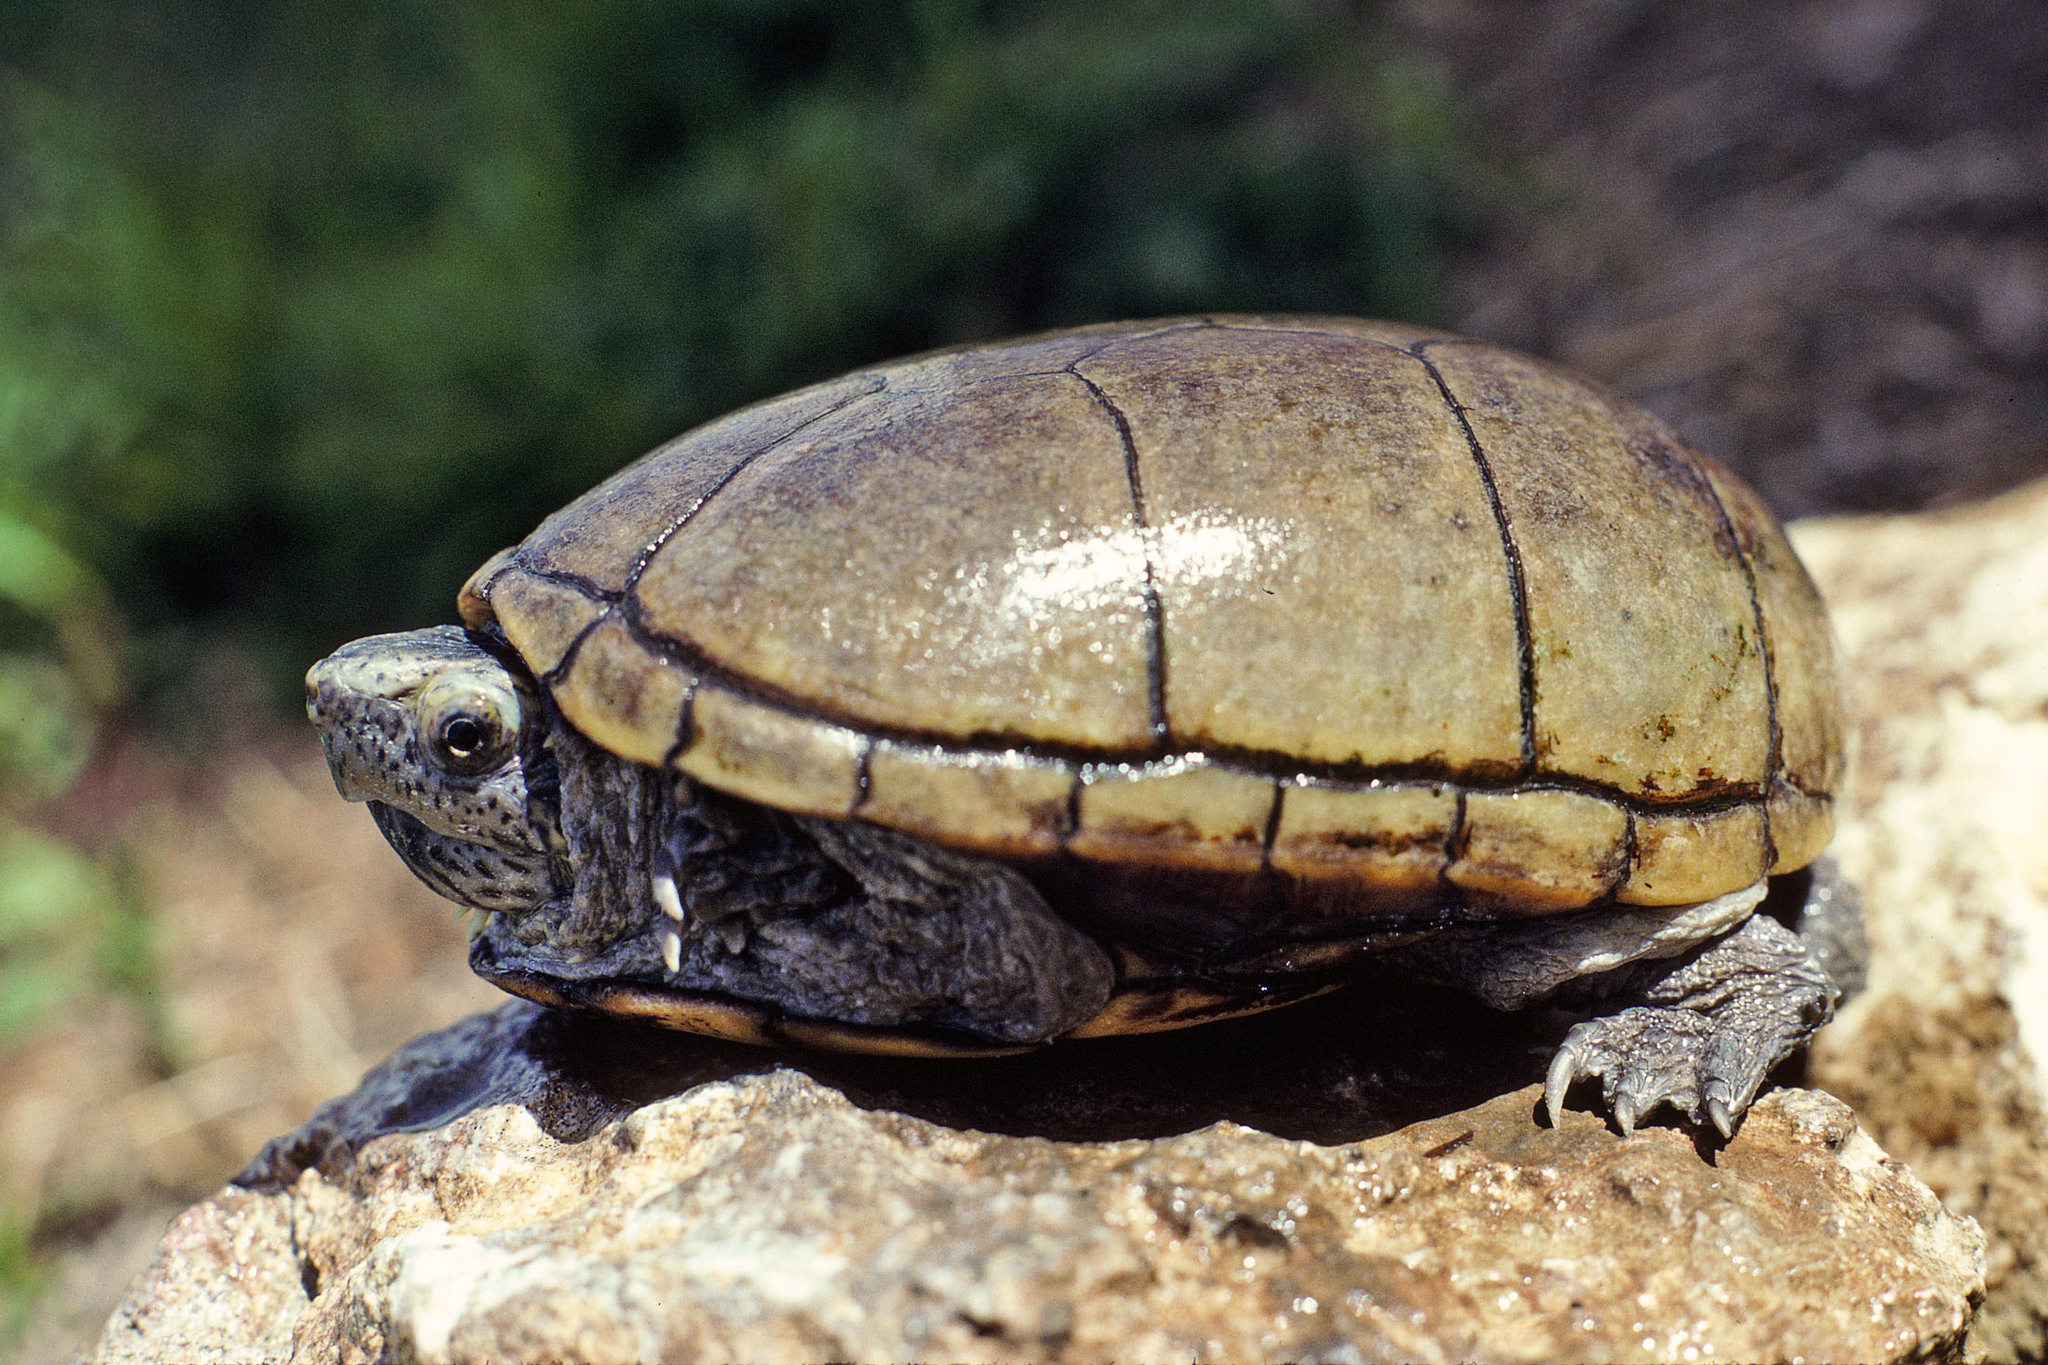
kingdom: Animalia
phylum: Chordata
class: Testudines
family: Kinosternidae
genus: Kinosternon
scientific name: Kinosternon subrubrum
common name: Eastern mud turtle
